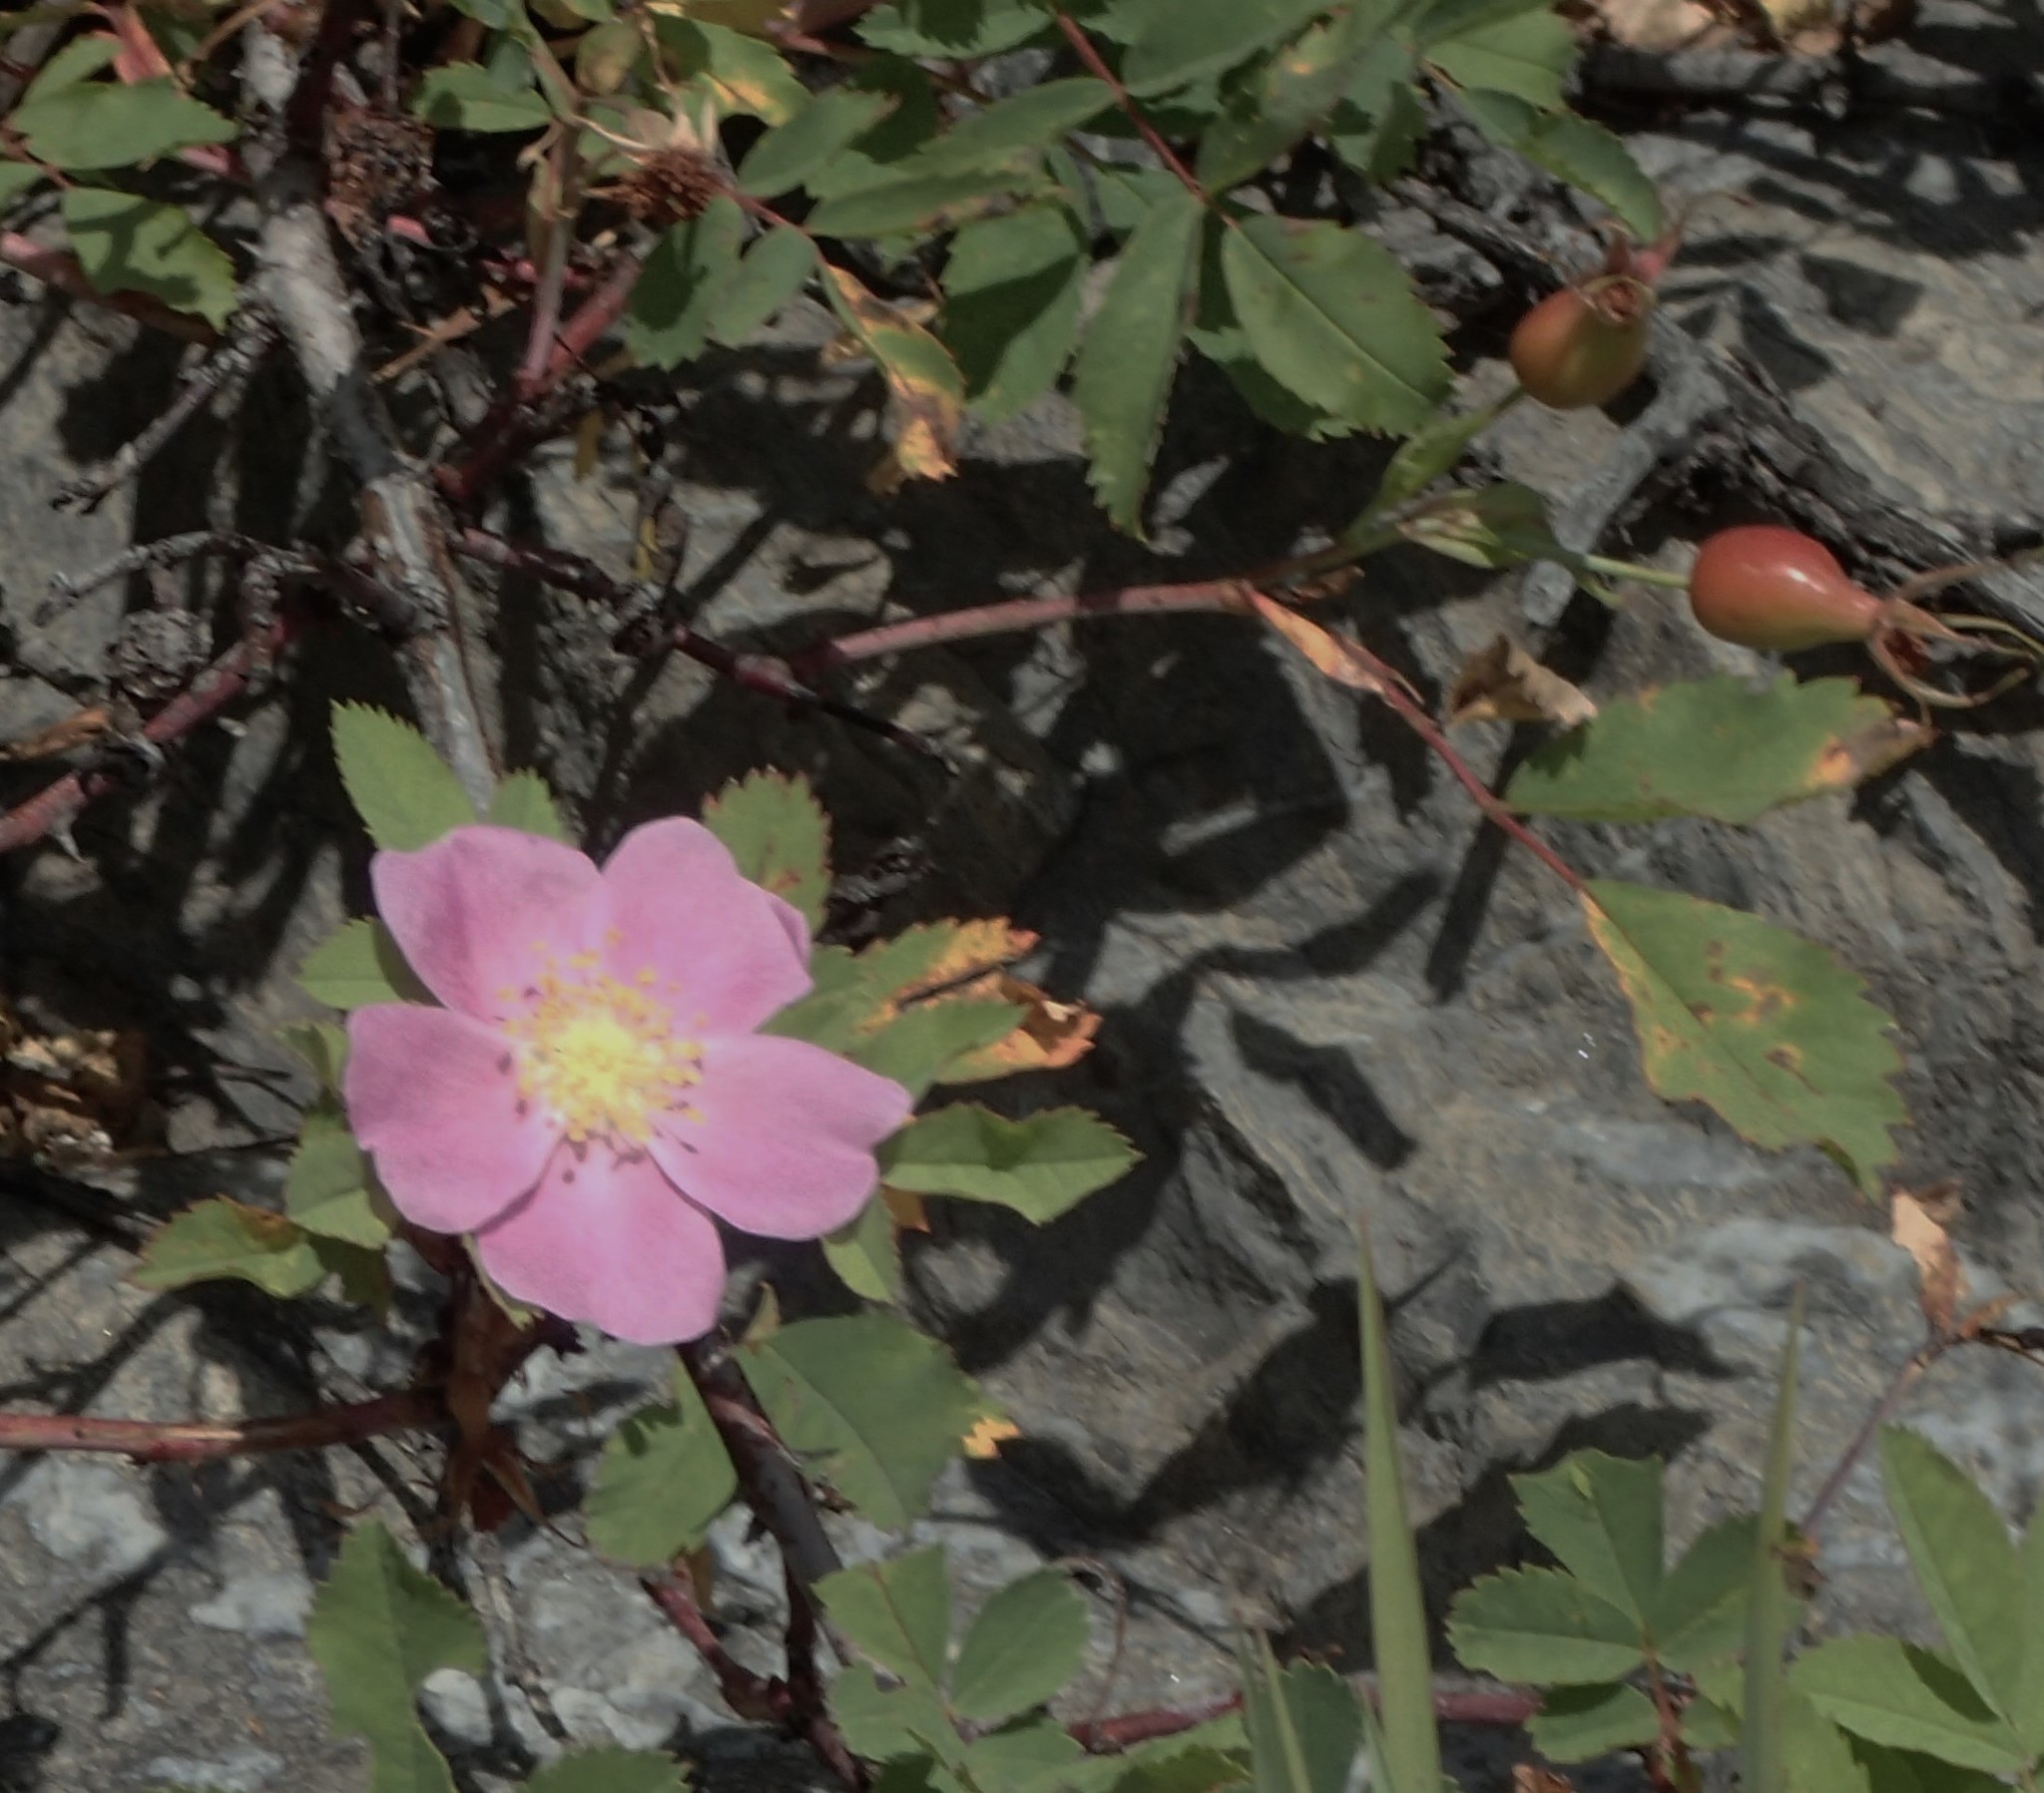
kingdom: Plantae
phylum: Tracheophyta
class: Magnoliopsida
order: Rosales
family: Rosaceae
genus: Rosa
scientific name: Rosa acicularis
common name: Prickly rose
